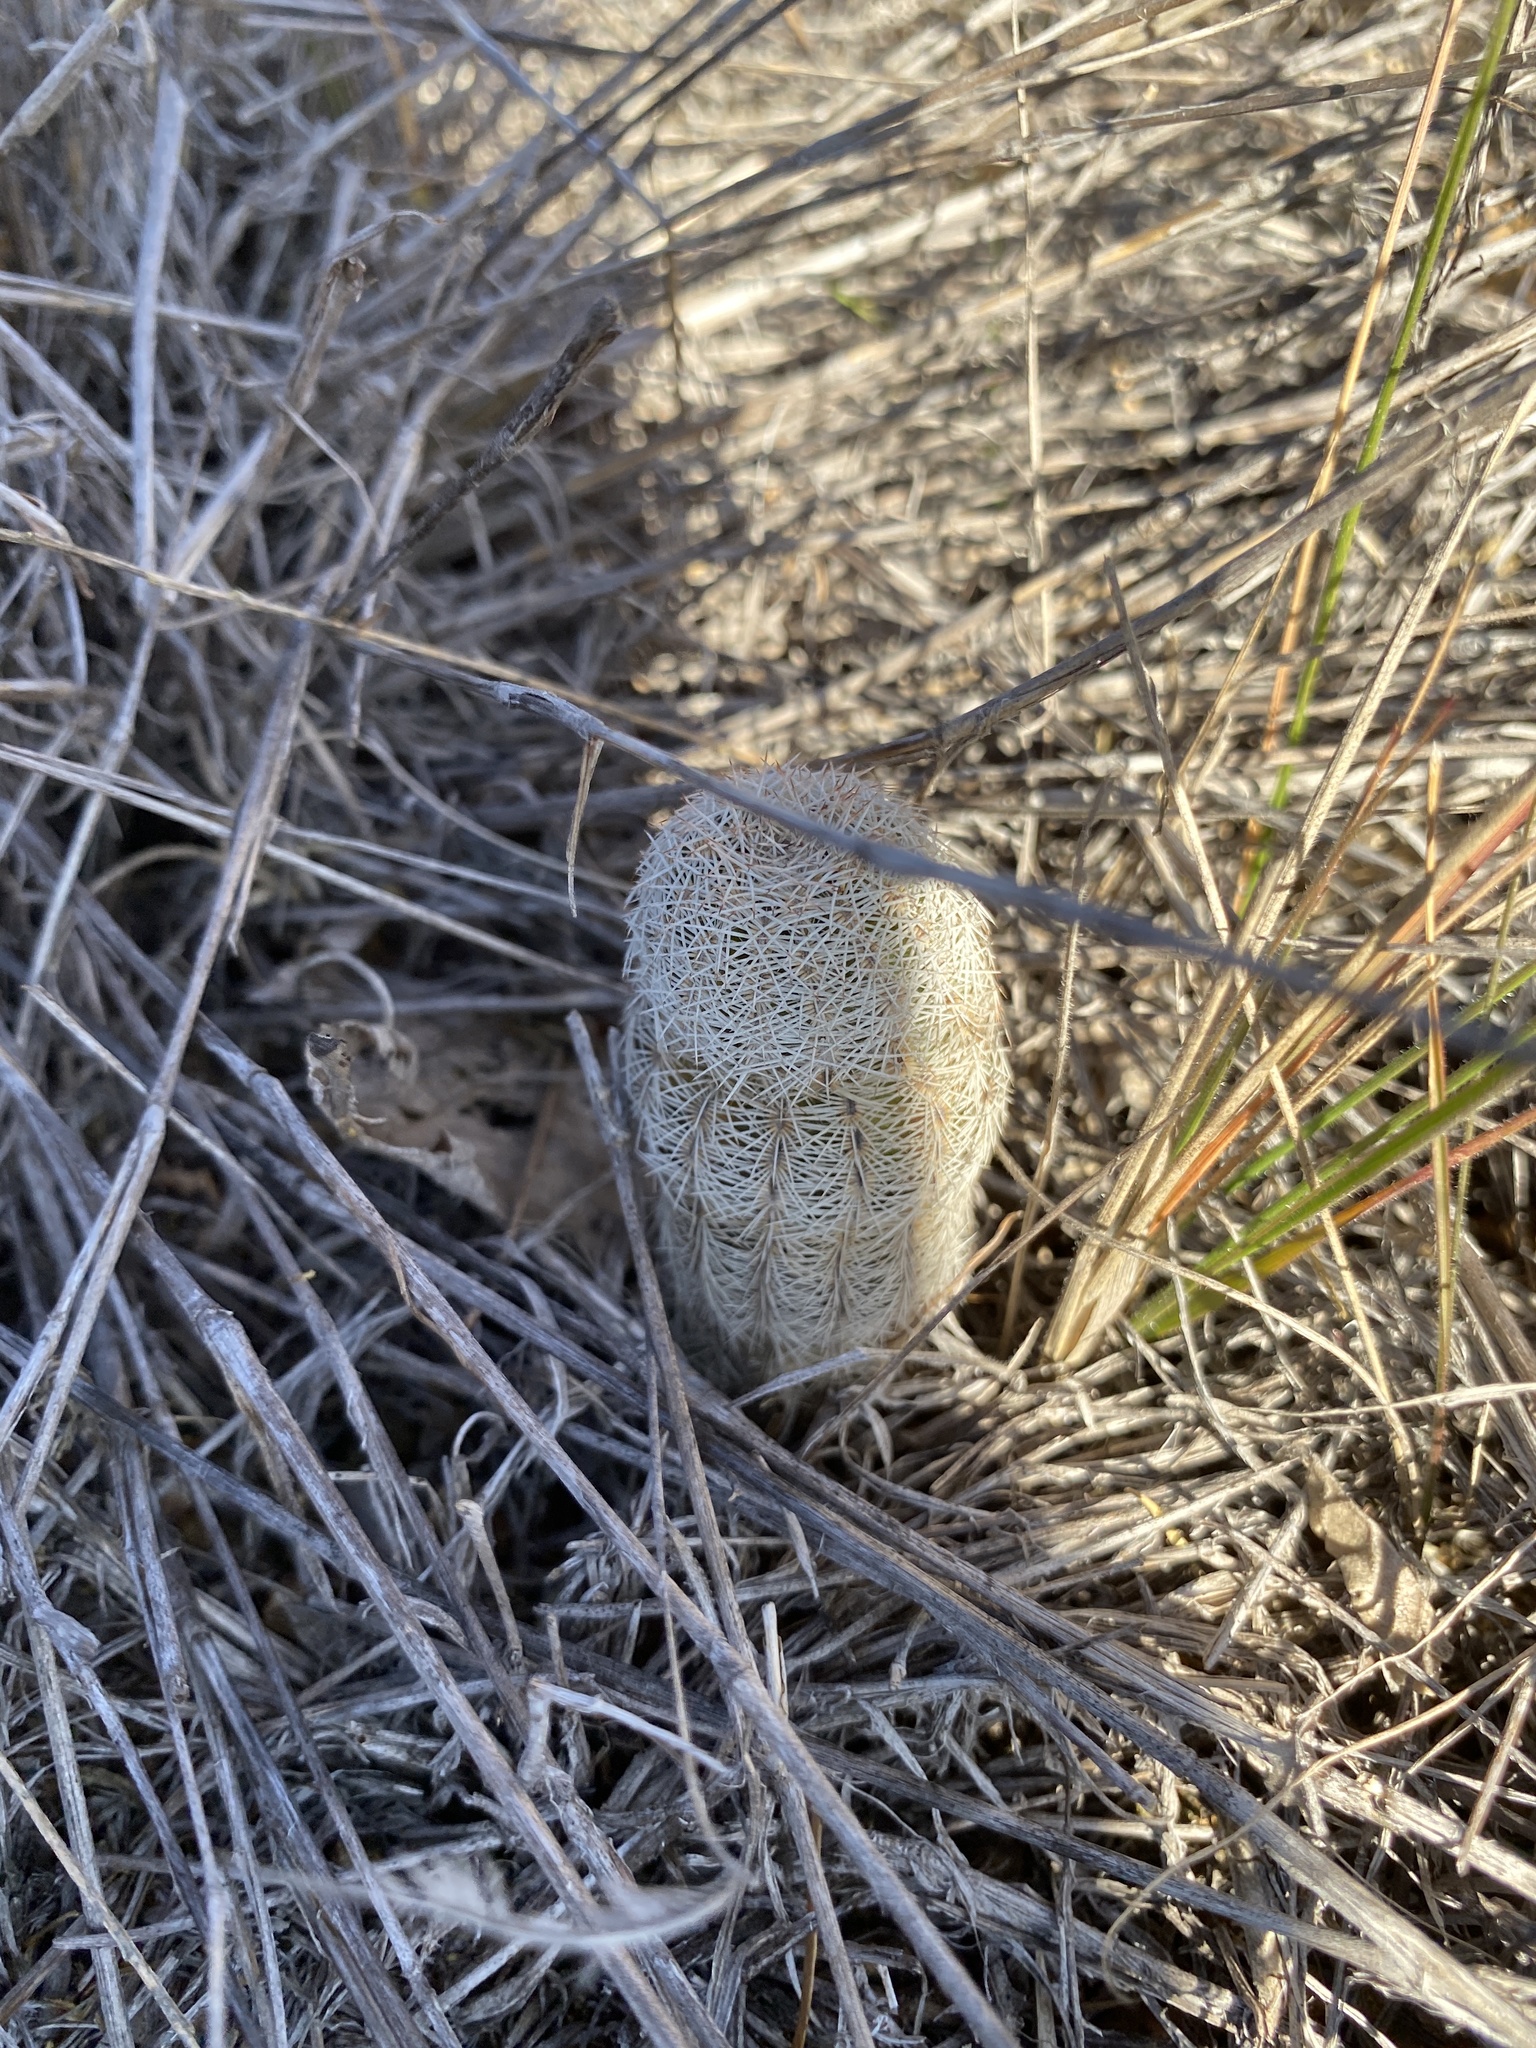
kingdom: Plantae
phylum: Tracheophyta
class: Magnoliopsida
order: Caryophyllales
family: Cactaceae
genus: Echinocereus
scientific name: Echinocereus reichenbachii
